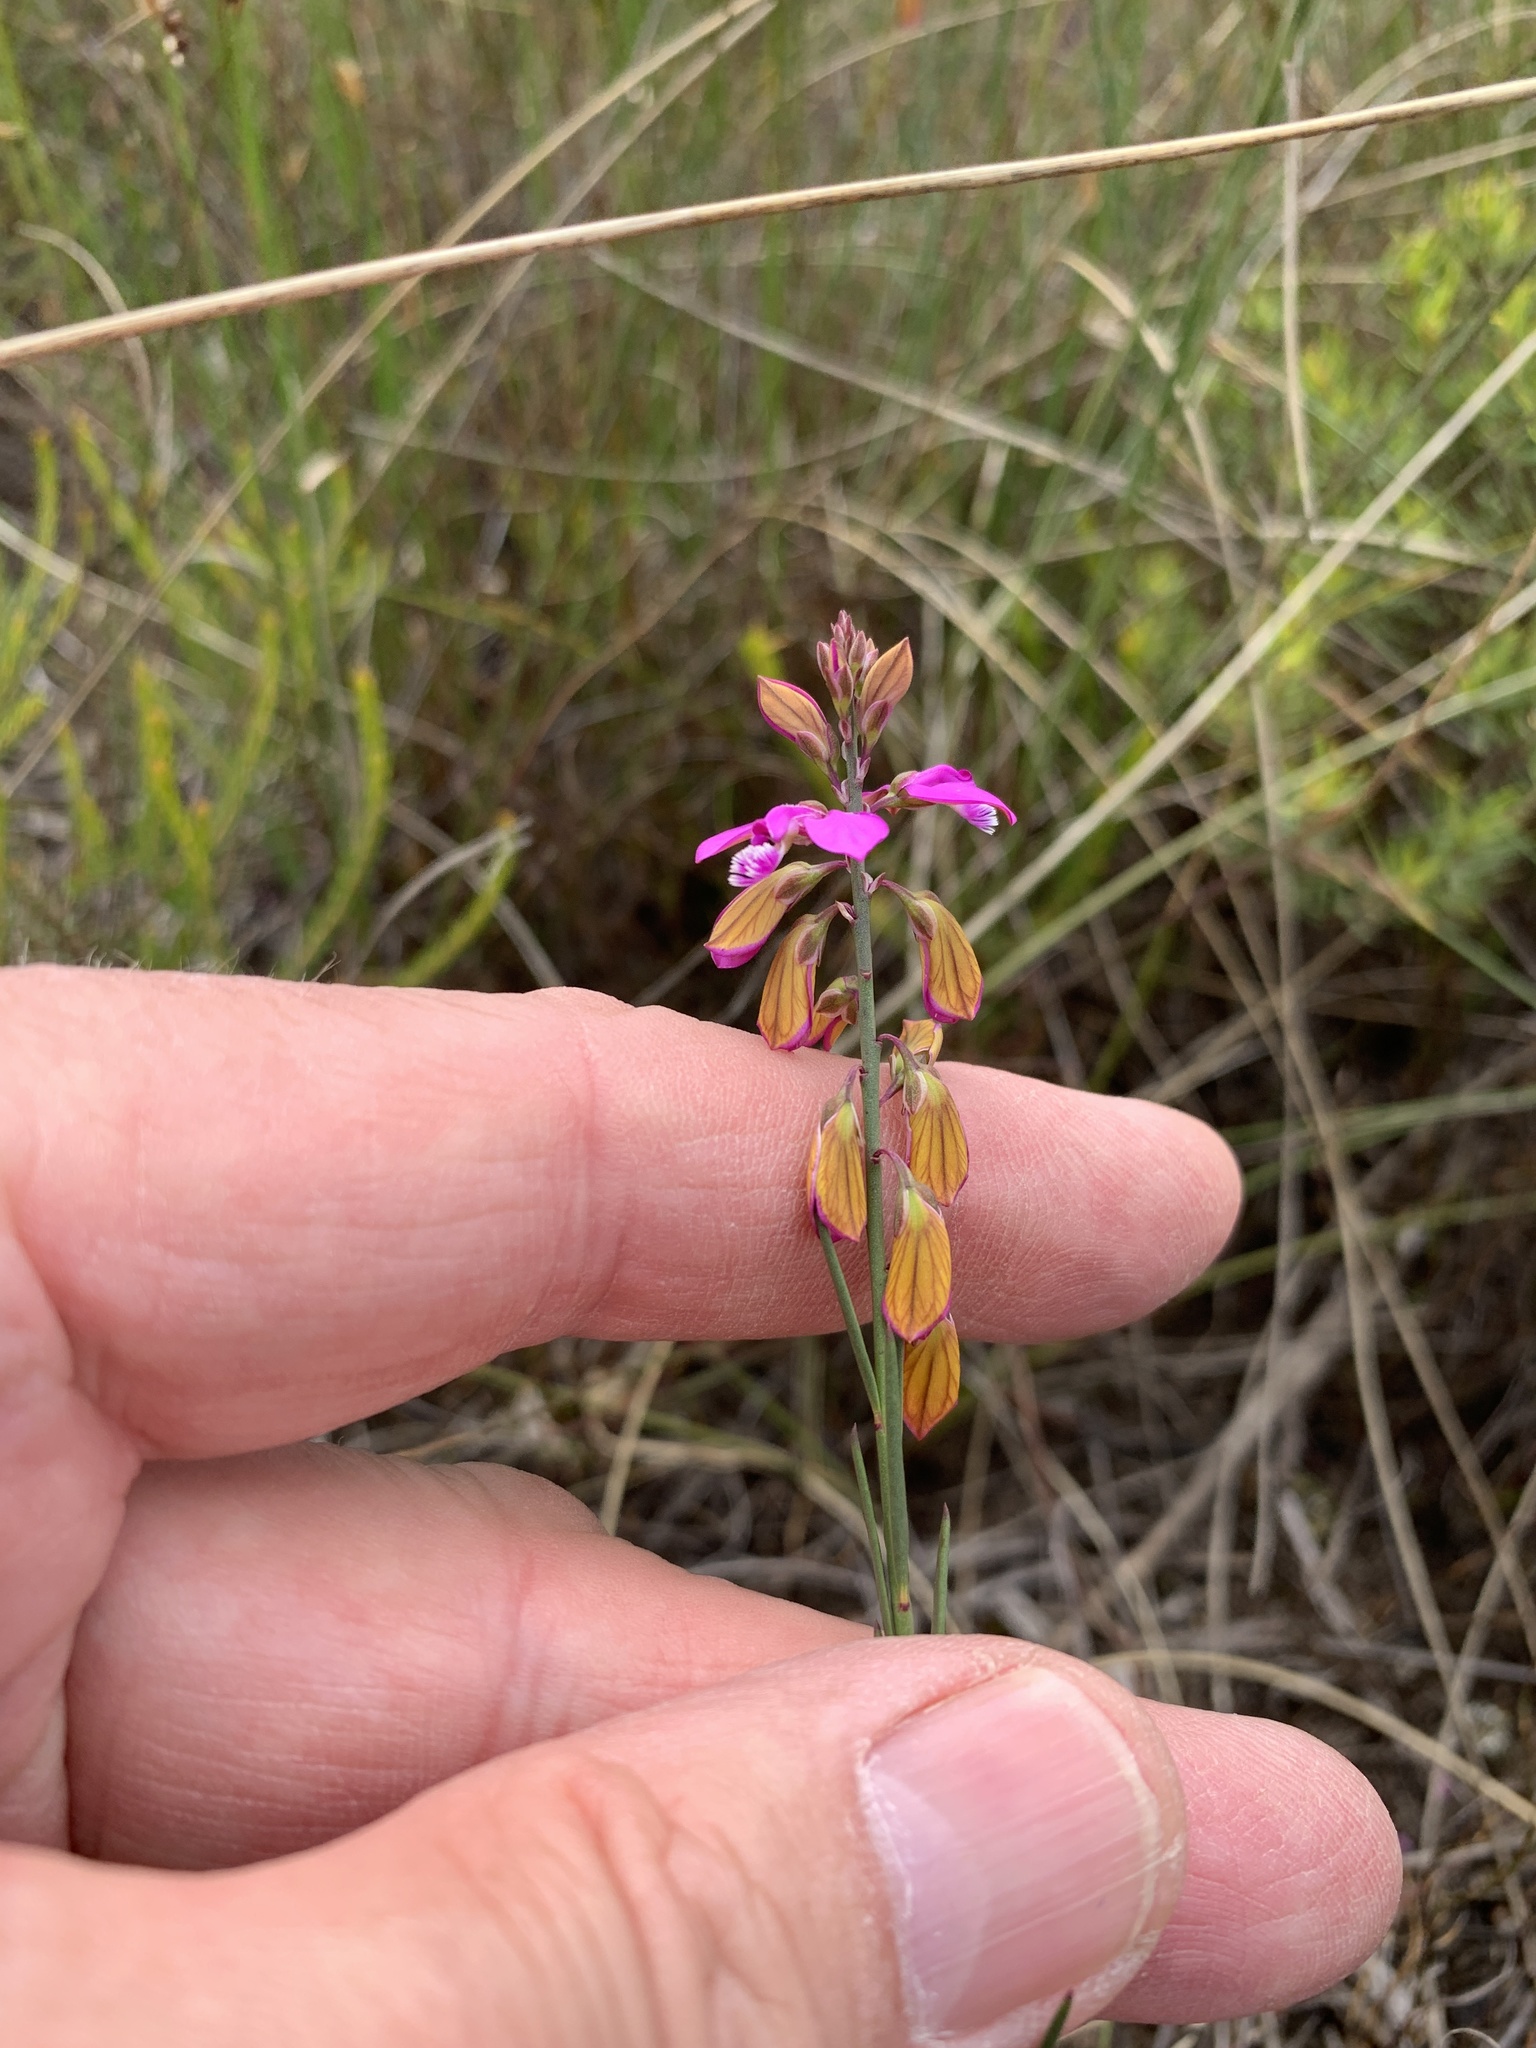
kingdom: Plantae
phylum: Tracheophyta
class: Magnoliopsida
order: Fabales
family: Polygalaceae
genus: Polygala
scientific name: Polygala garcini
